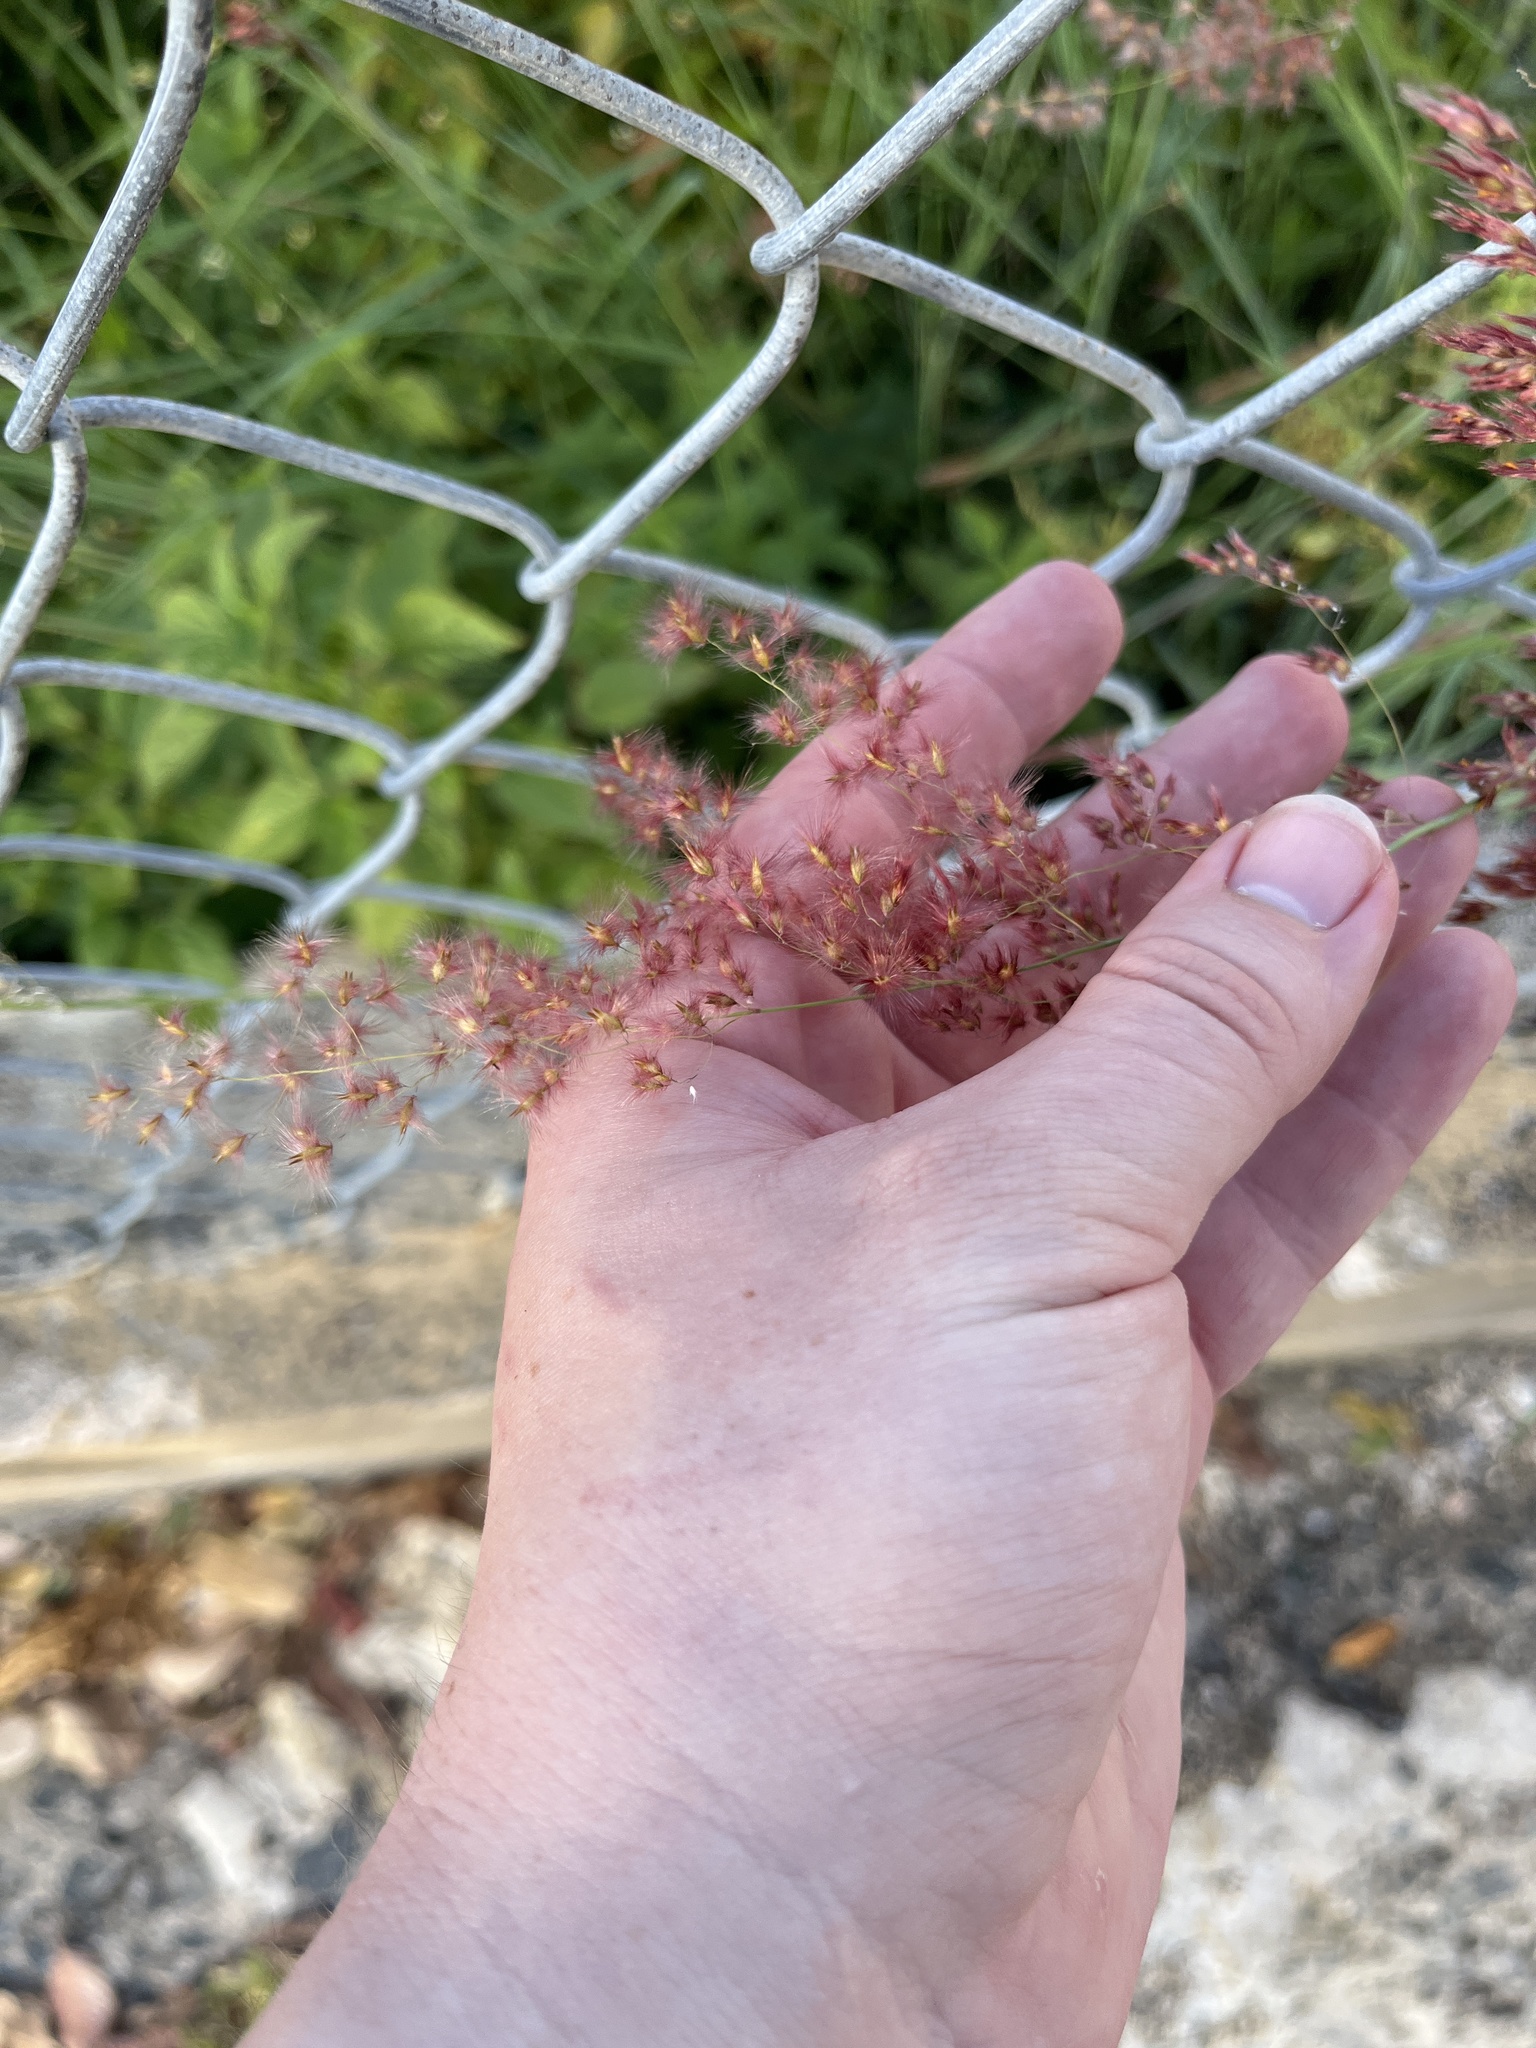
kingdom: Plantae
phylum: Tracheophyta
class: Liliopsida
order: Poales
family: Poaceae
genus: Melinis
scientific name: Melinis repens
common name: Rose natal grass
